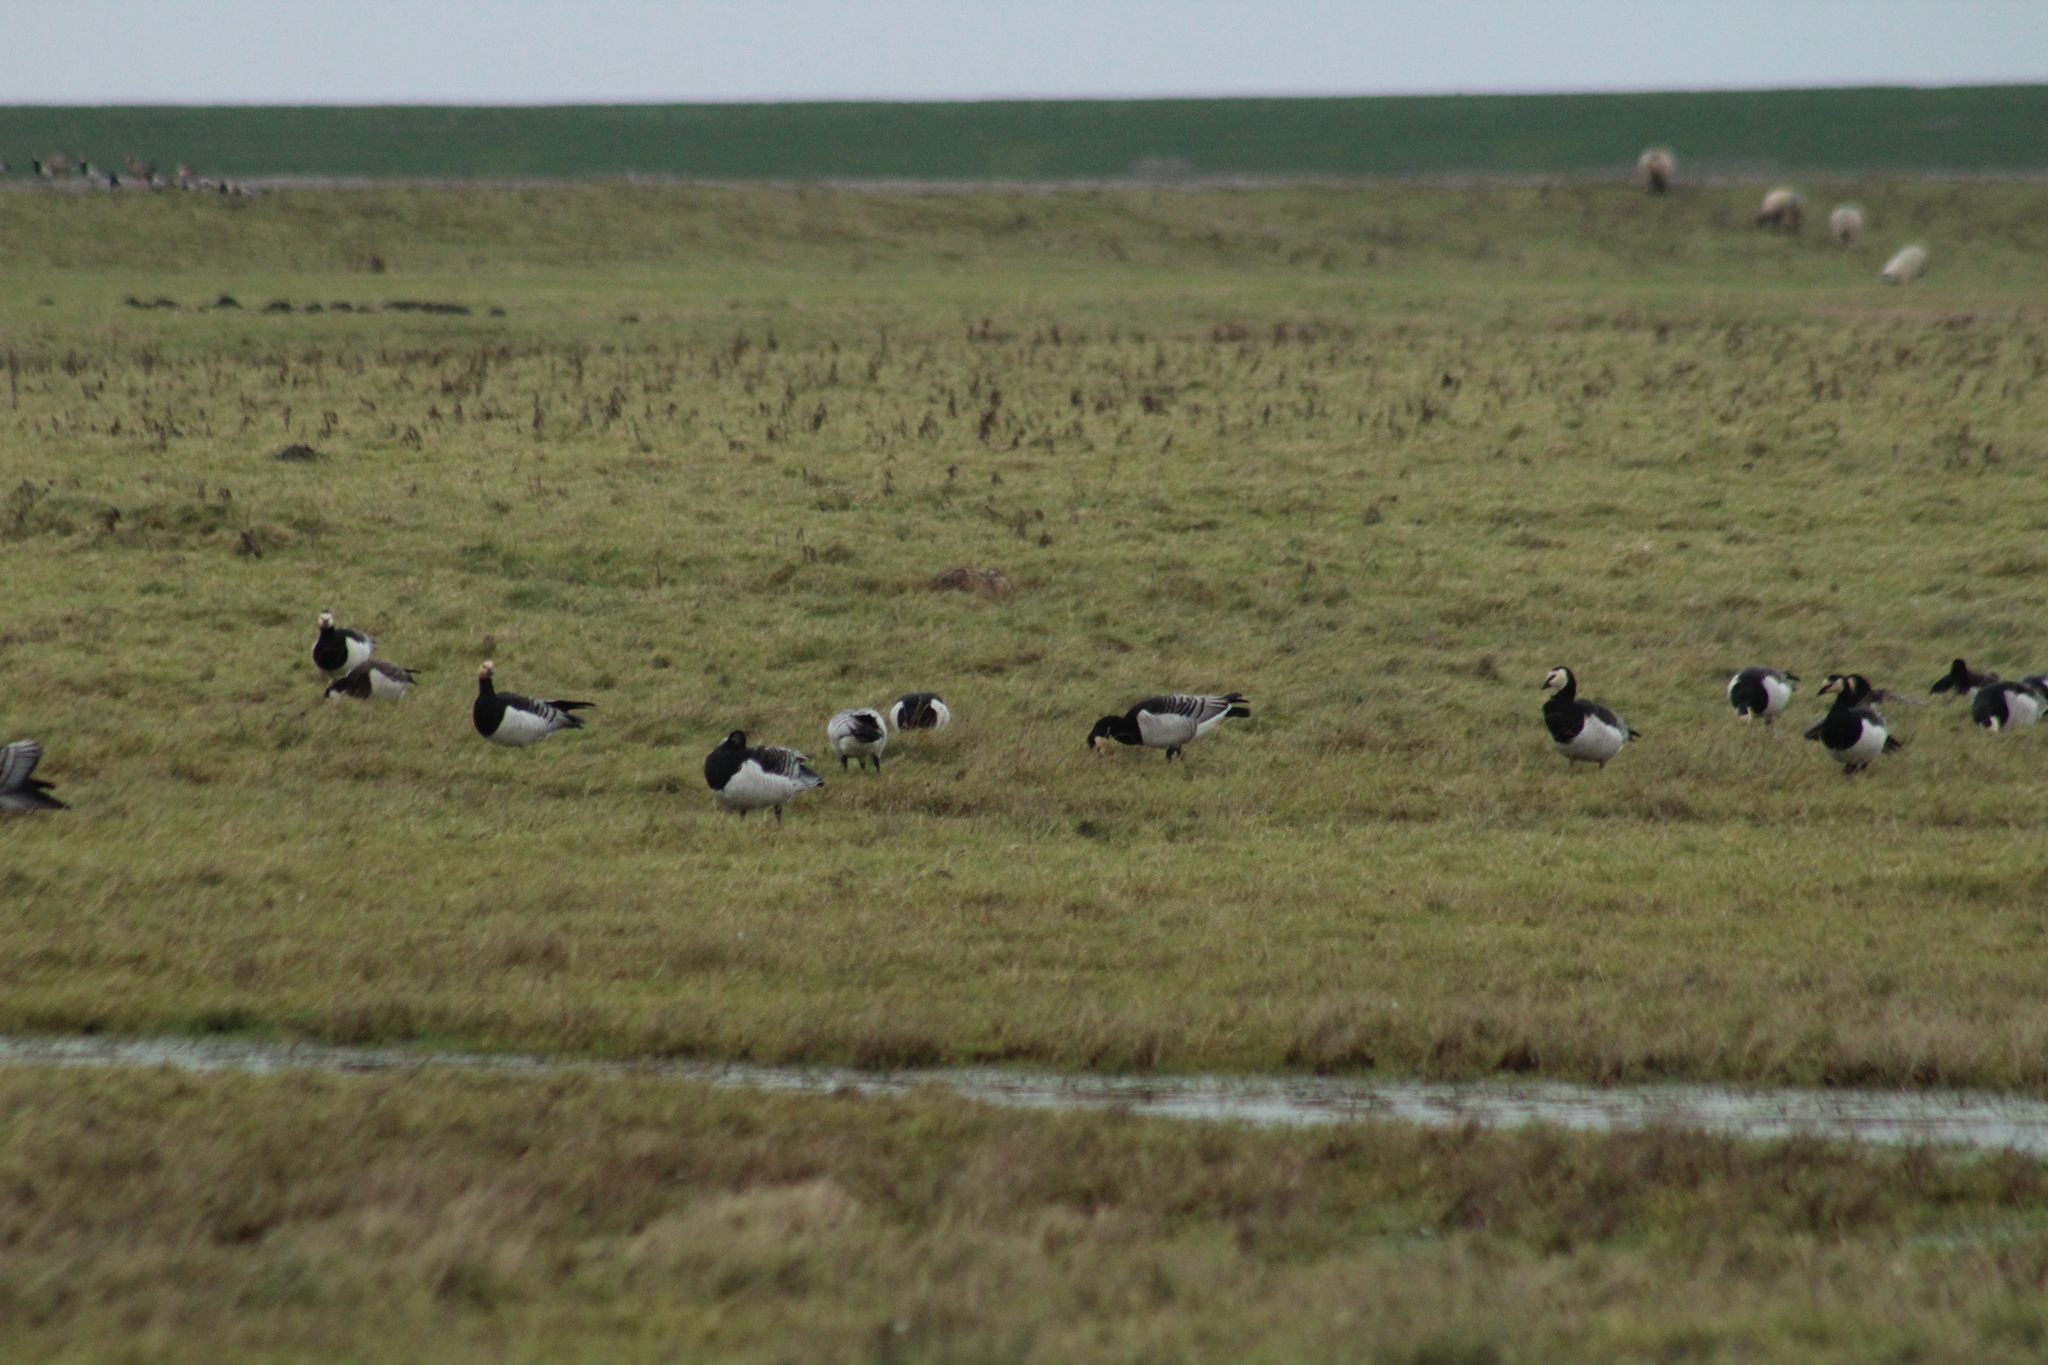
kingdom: Animalia
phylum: Chordata
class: Aves
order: Anseriformes
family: Anatidae
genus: Branta
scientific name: Branta leucopsis
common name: Barnacle goose
